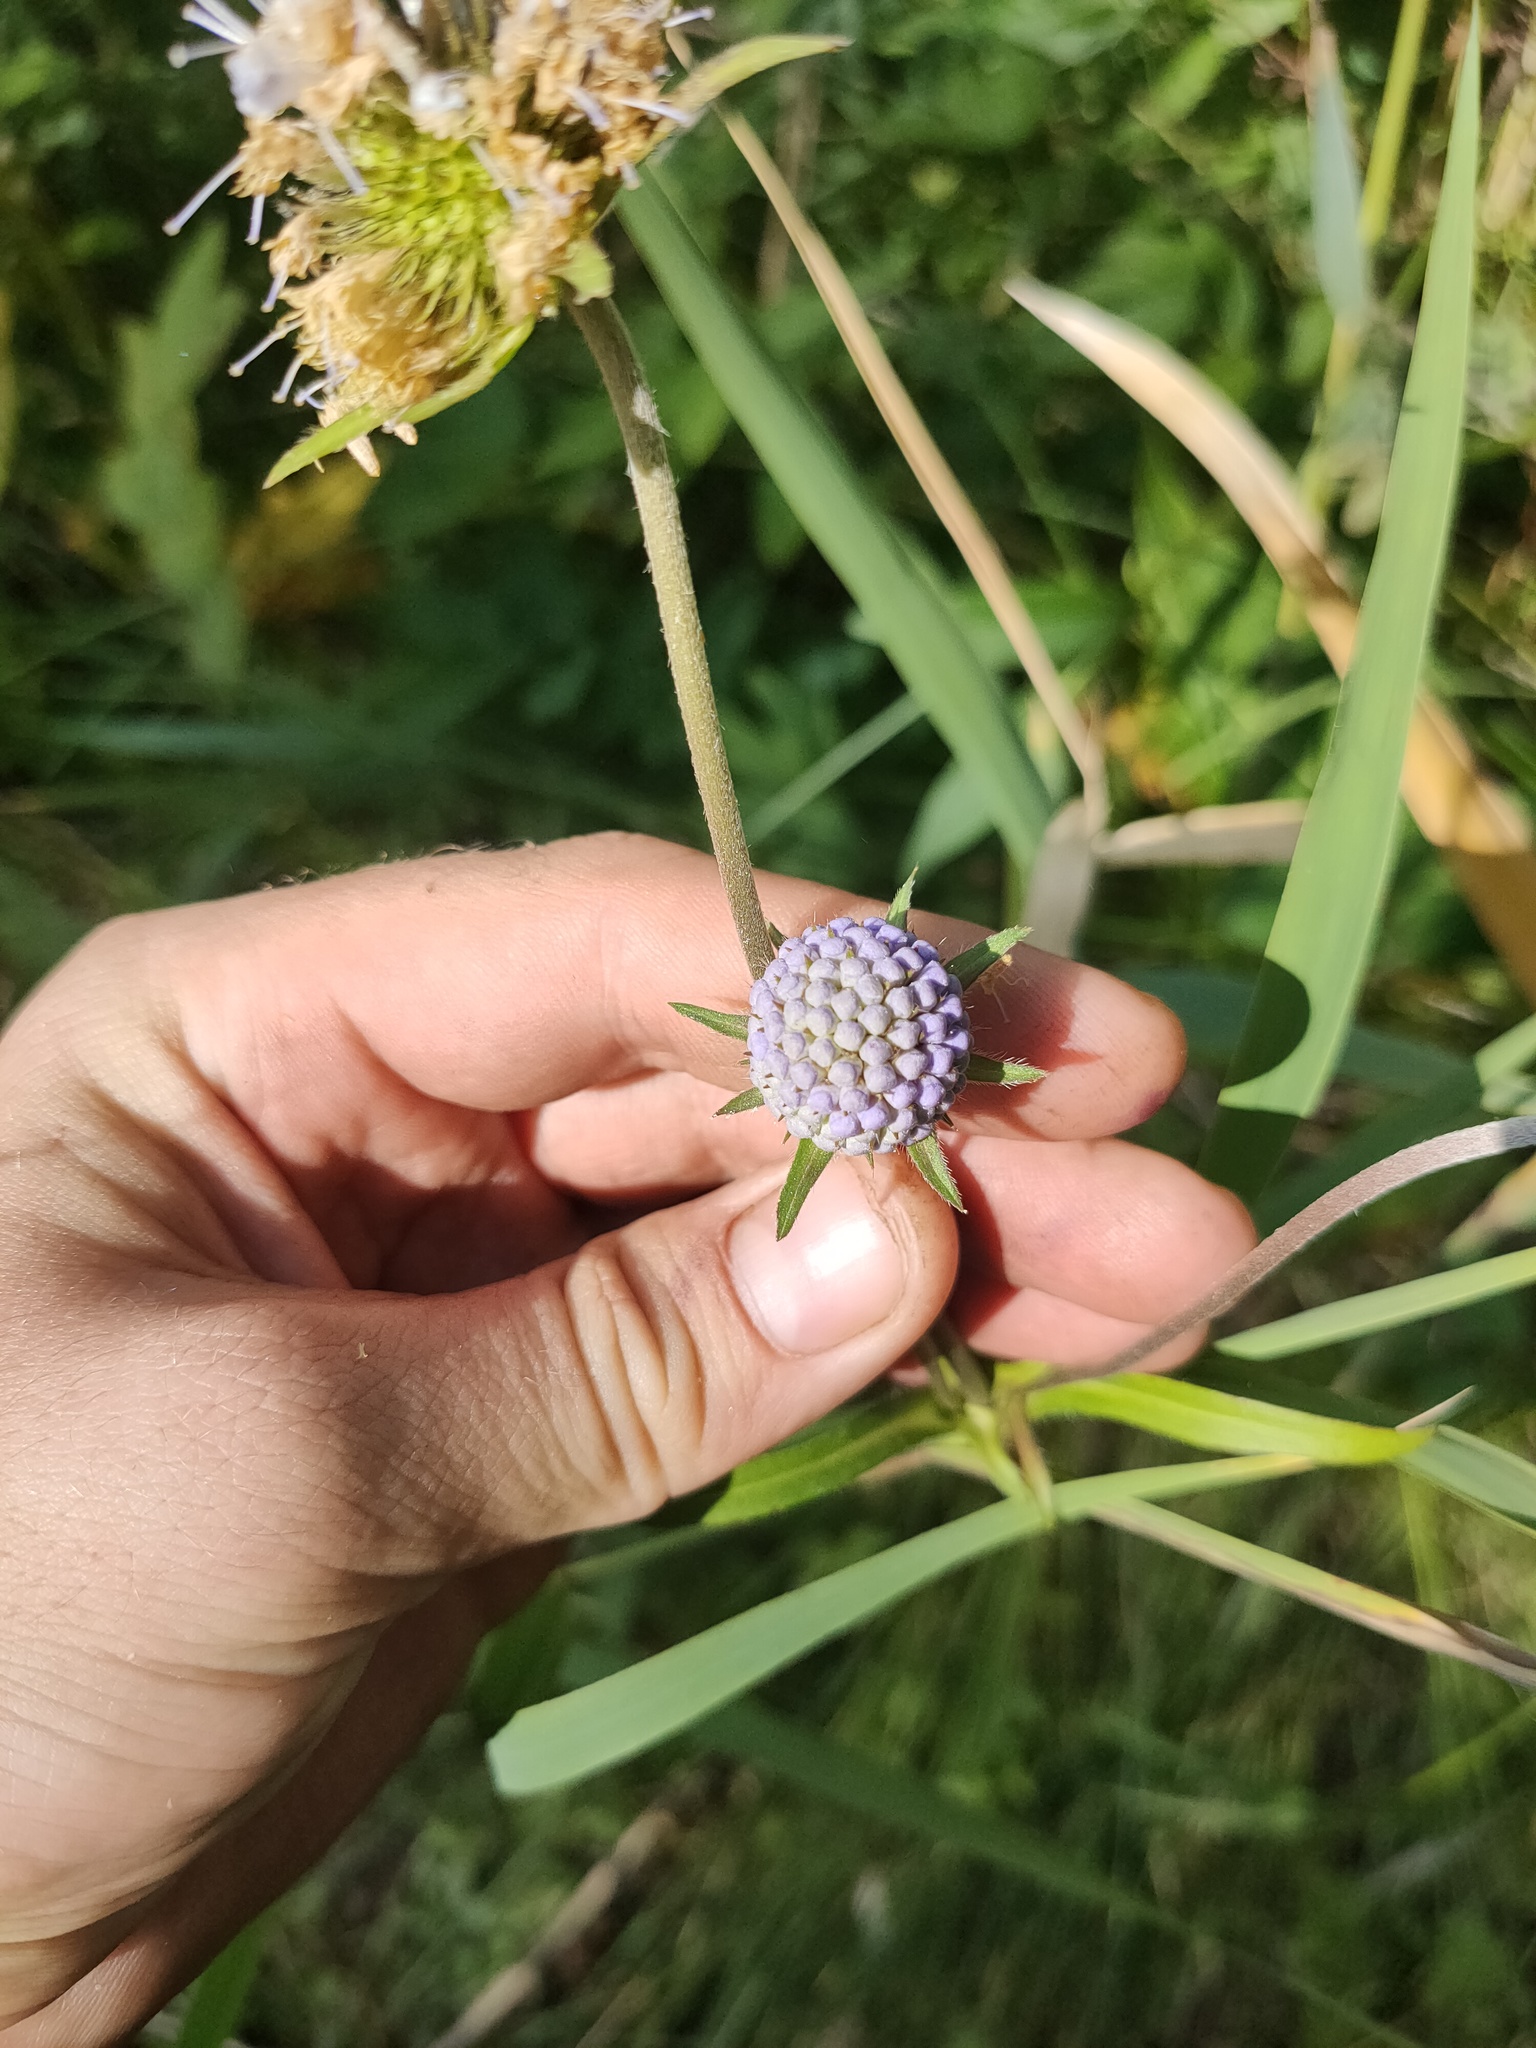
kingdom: Plantae
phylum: Tracheophyta
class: Magnoliopsida
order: Dipsacales
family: Caprifoliaceae
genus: Succisa
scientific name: Succisa pratensis
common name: Devil's-bit
